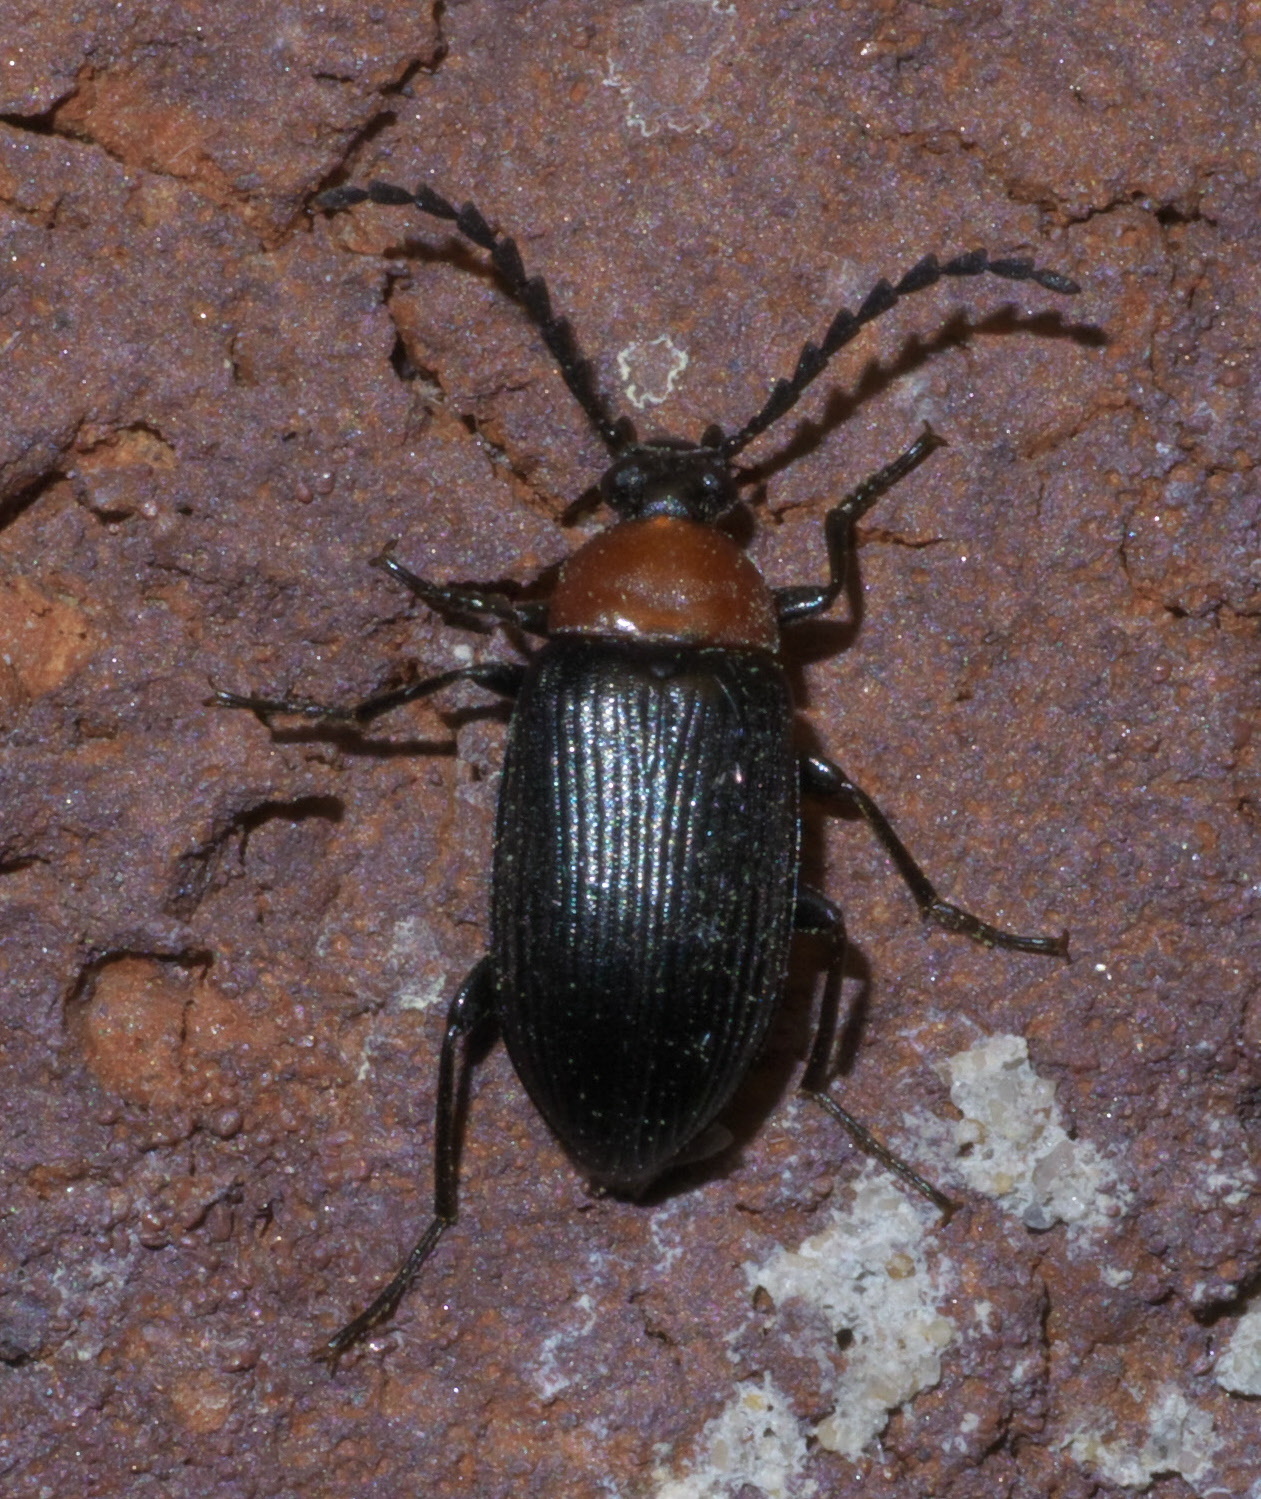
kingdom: Animalia
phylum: Arthropoda
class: Insecta
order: Coleoptera
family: Tenebrionidae
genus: Chromatia
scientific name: Chromatia amoena
